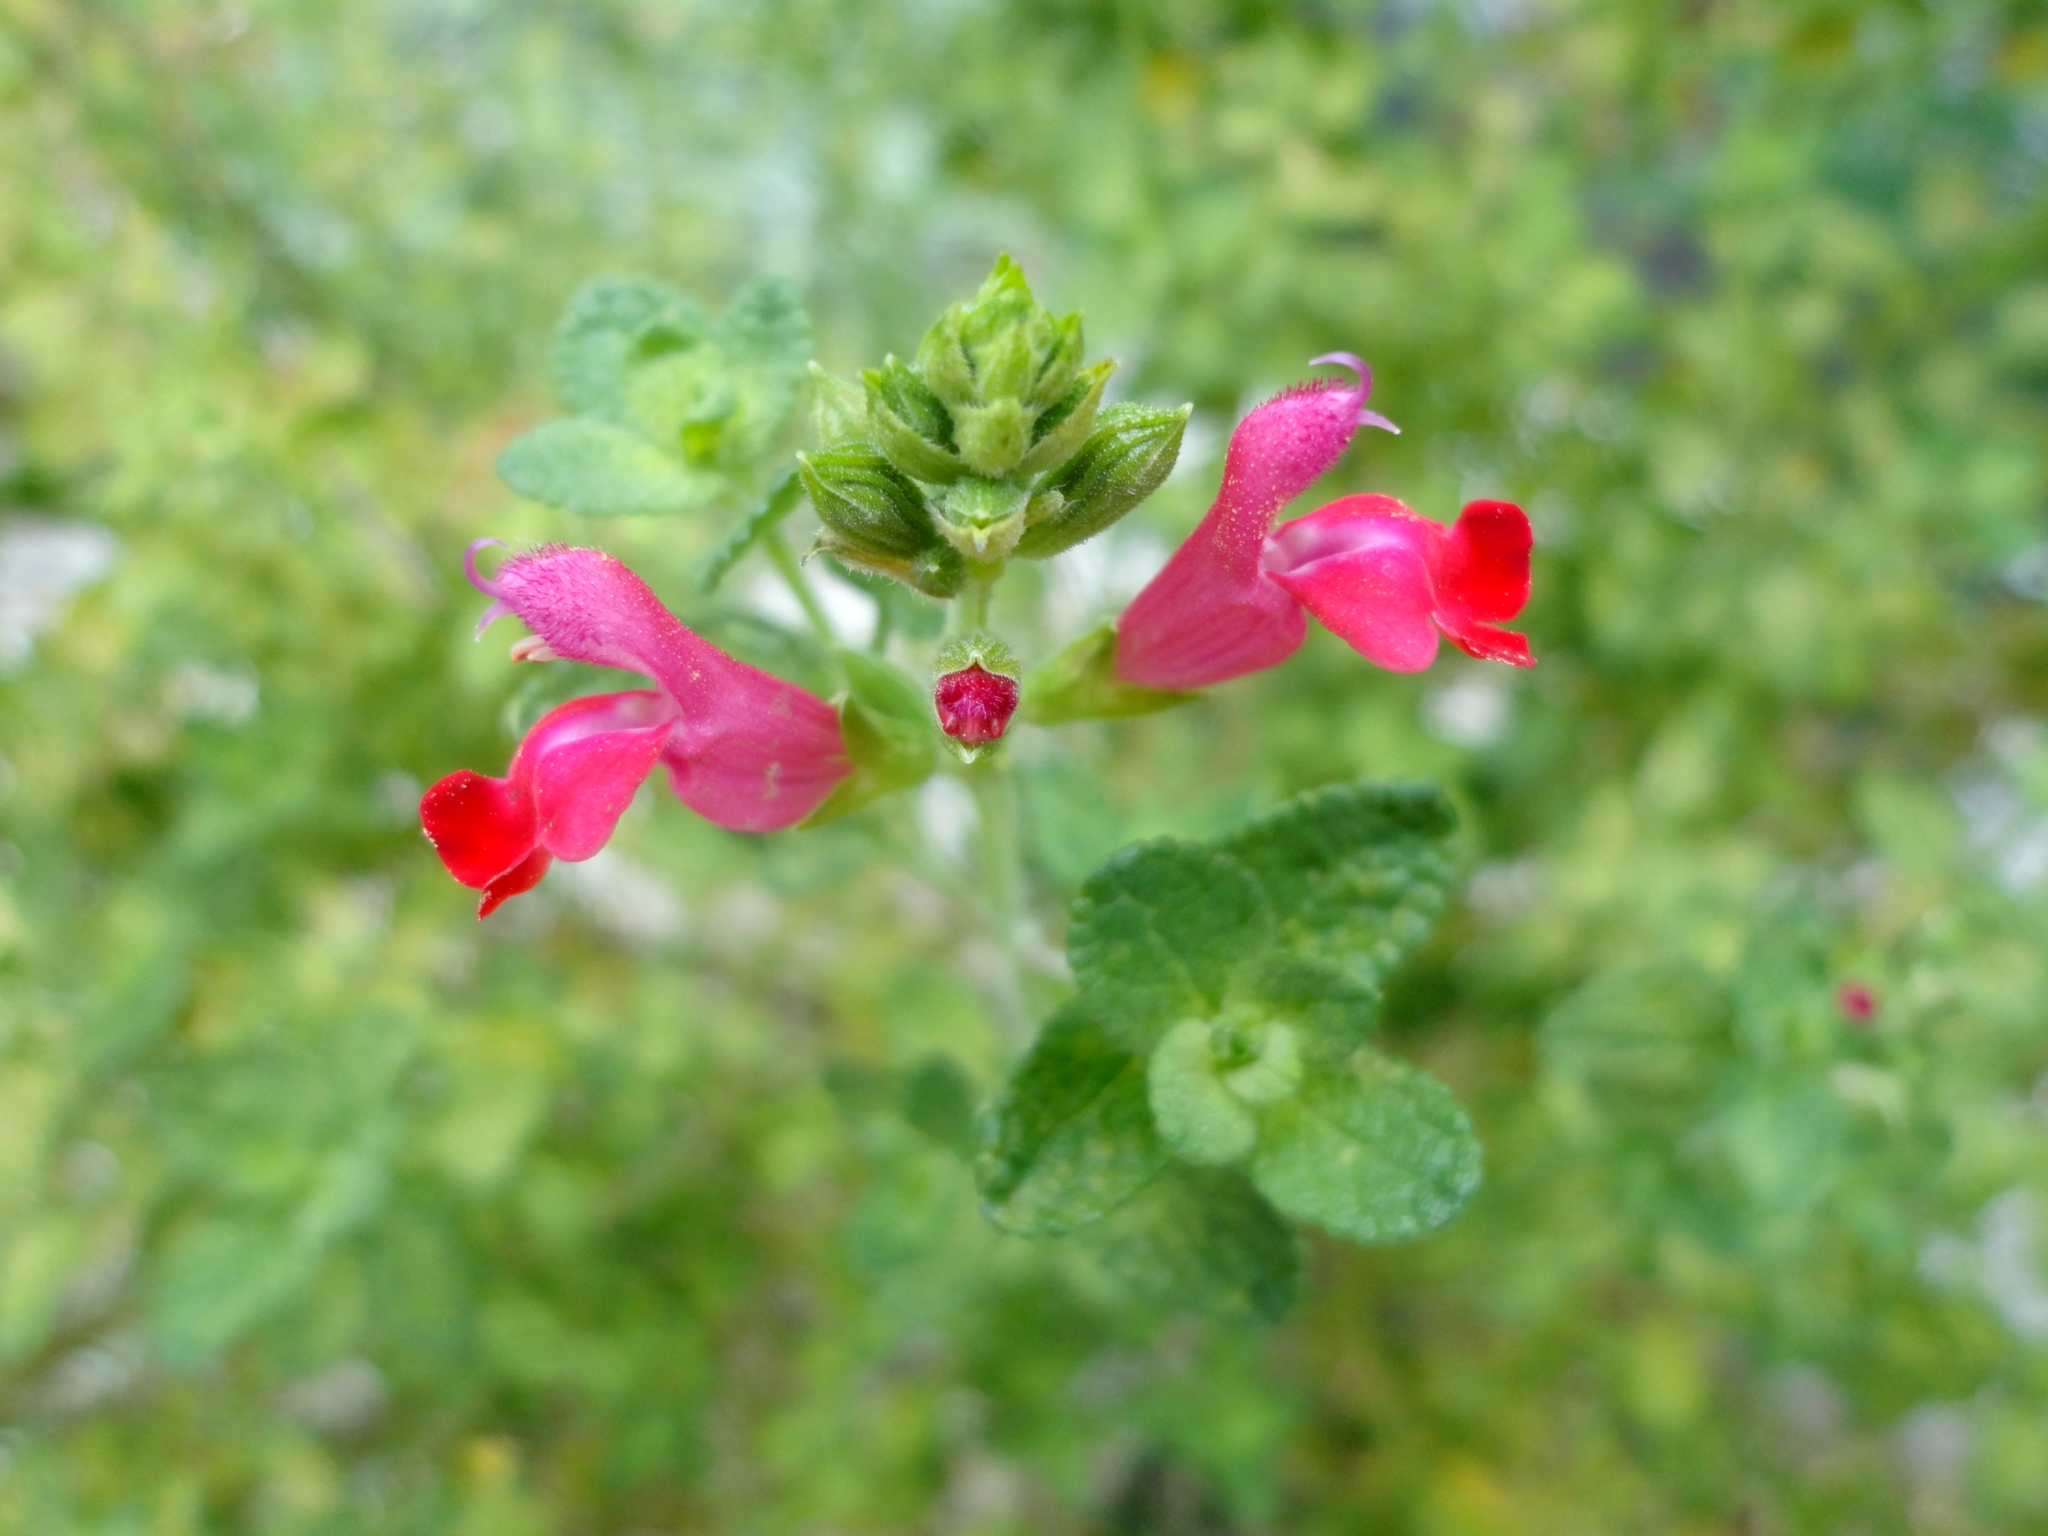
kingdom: Plantae
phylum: Tracheophyta
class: Magnoliopsida
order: Lamiales
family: Lamiaceae
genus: Salvia
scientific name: Salvia microphylla
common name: Baby sage
